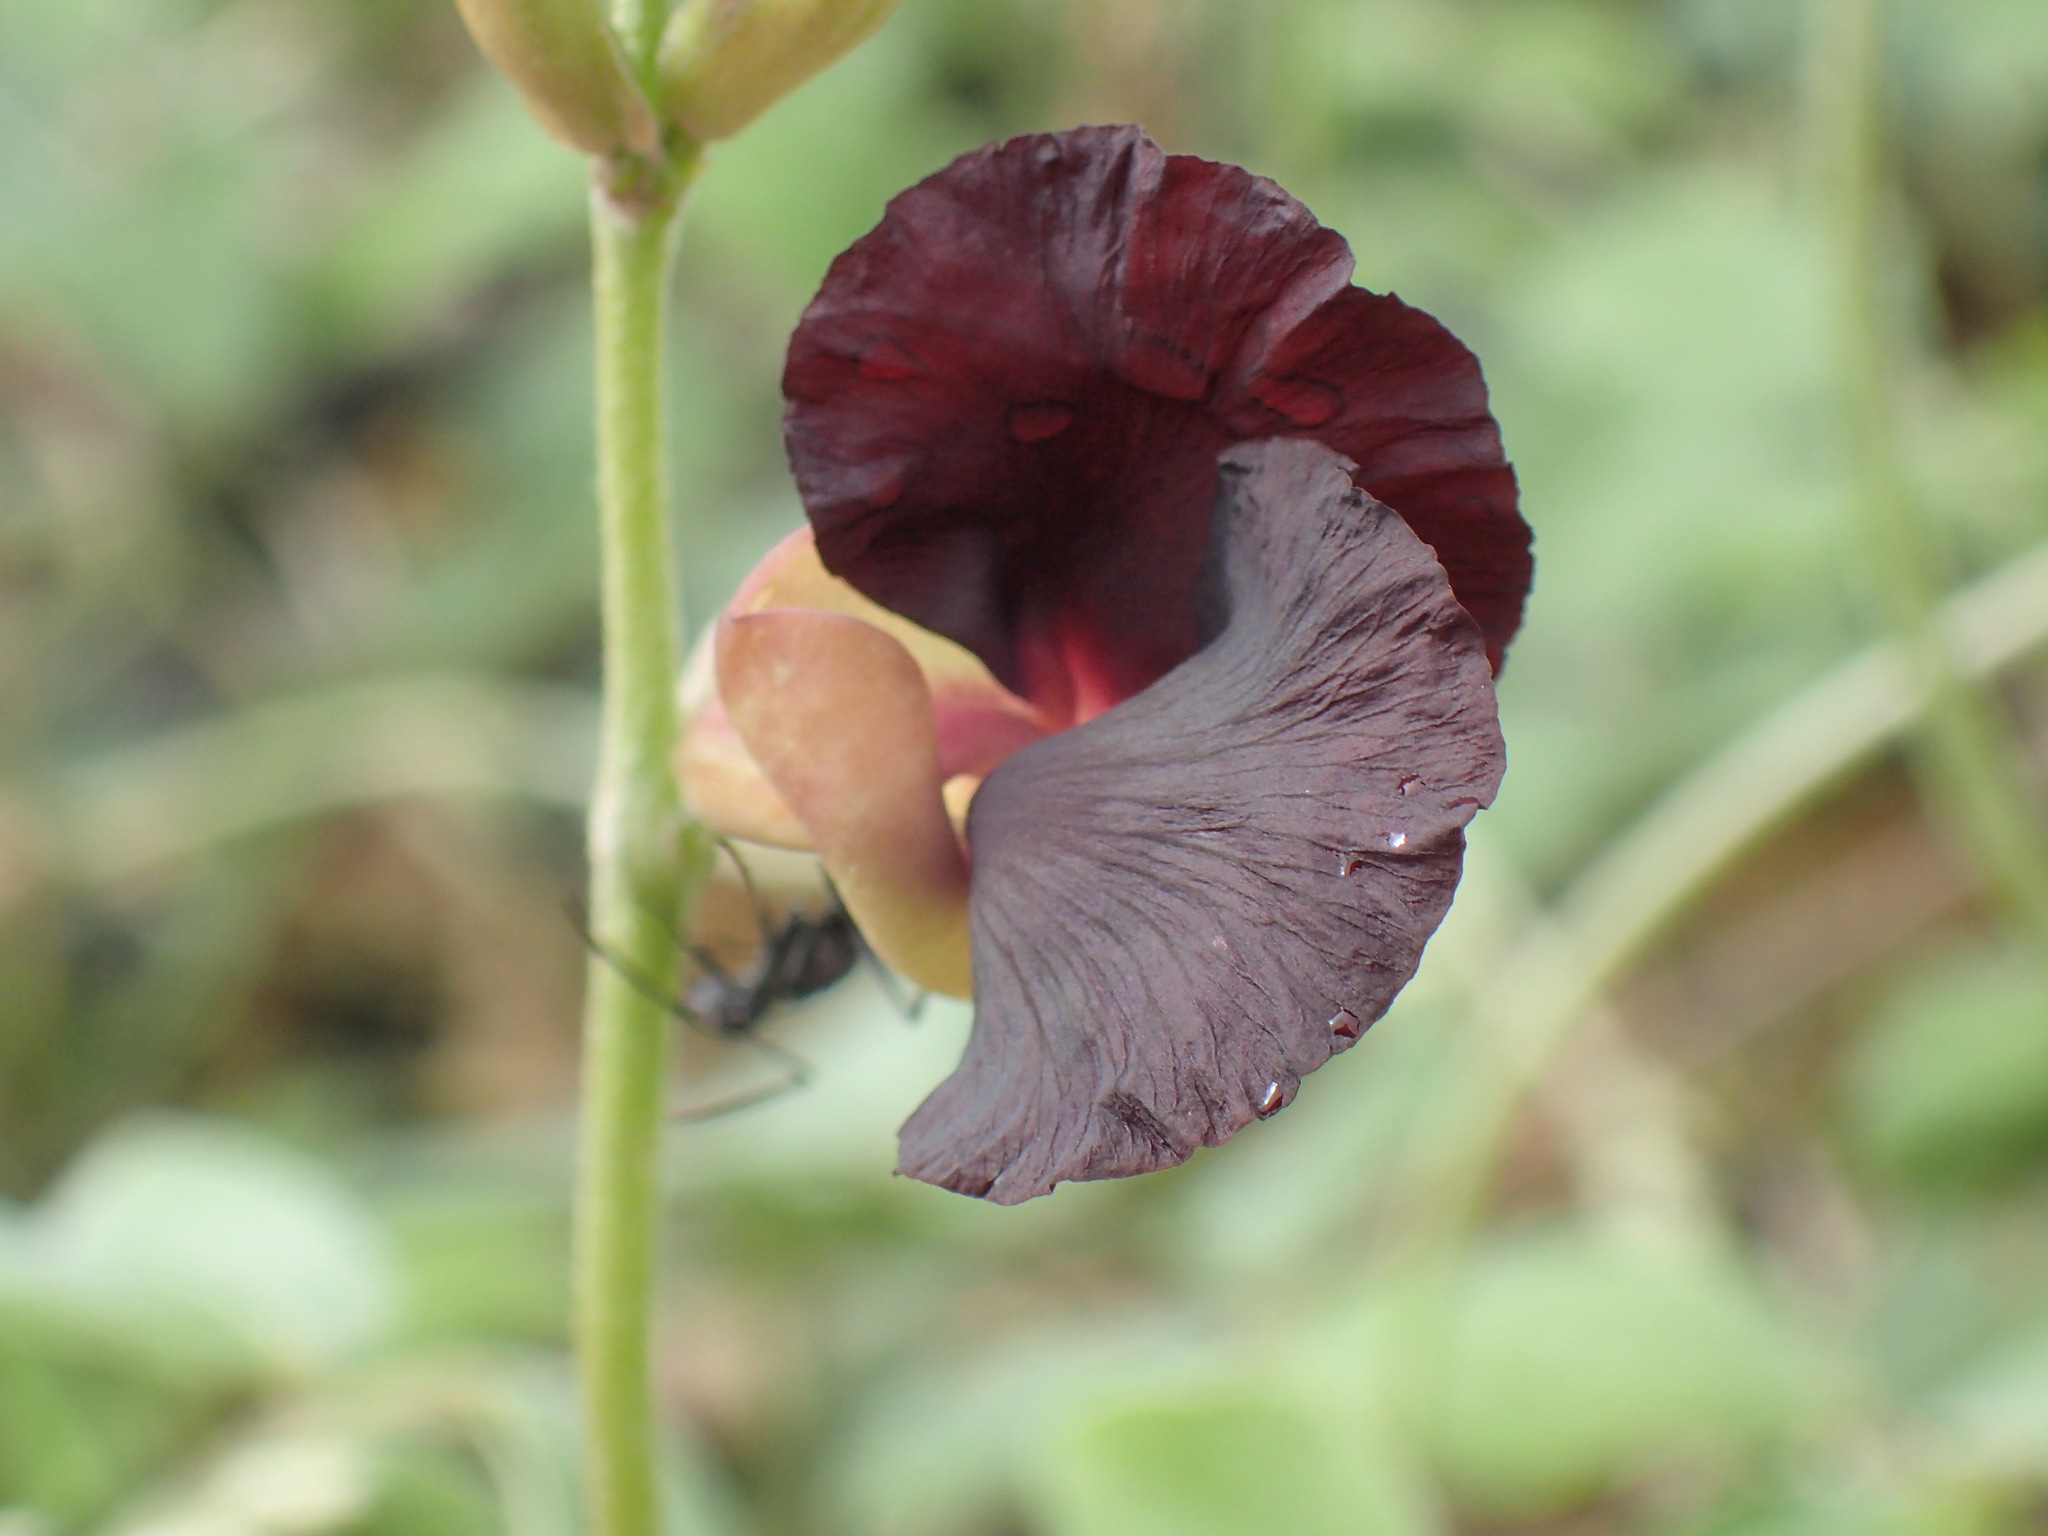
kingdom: Plantae
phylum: Tracheophyta
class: Magnoliopsida
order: Fabales
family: Fabaceae
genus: Macroptilium
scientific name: Macroptilium atropurpureum
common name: Purple bushbean
